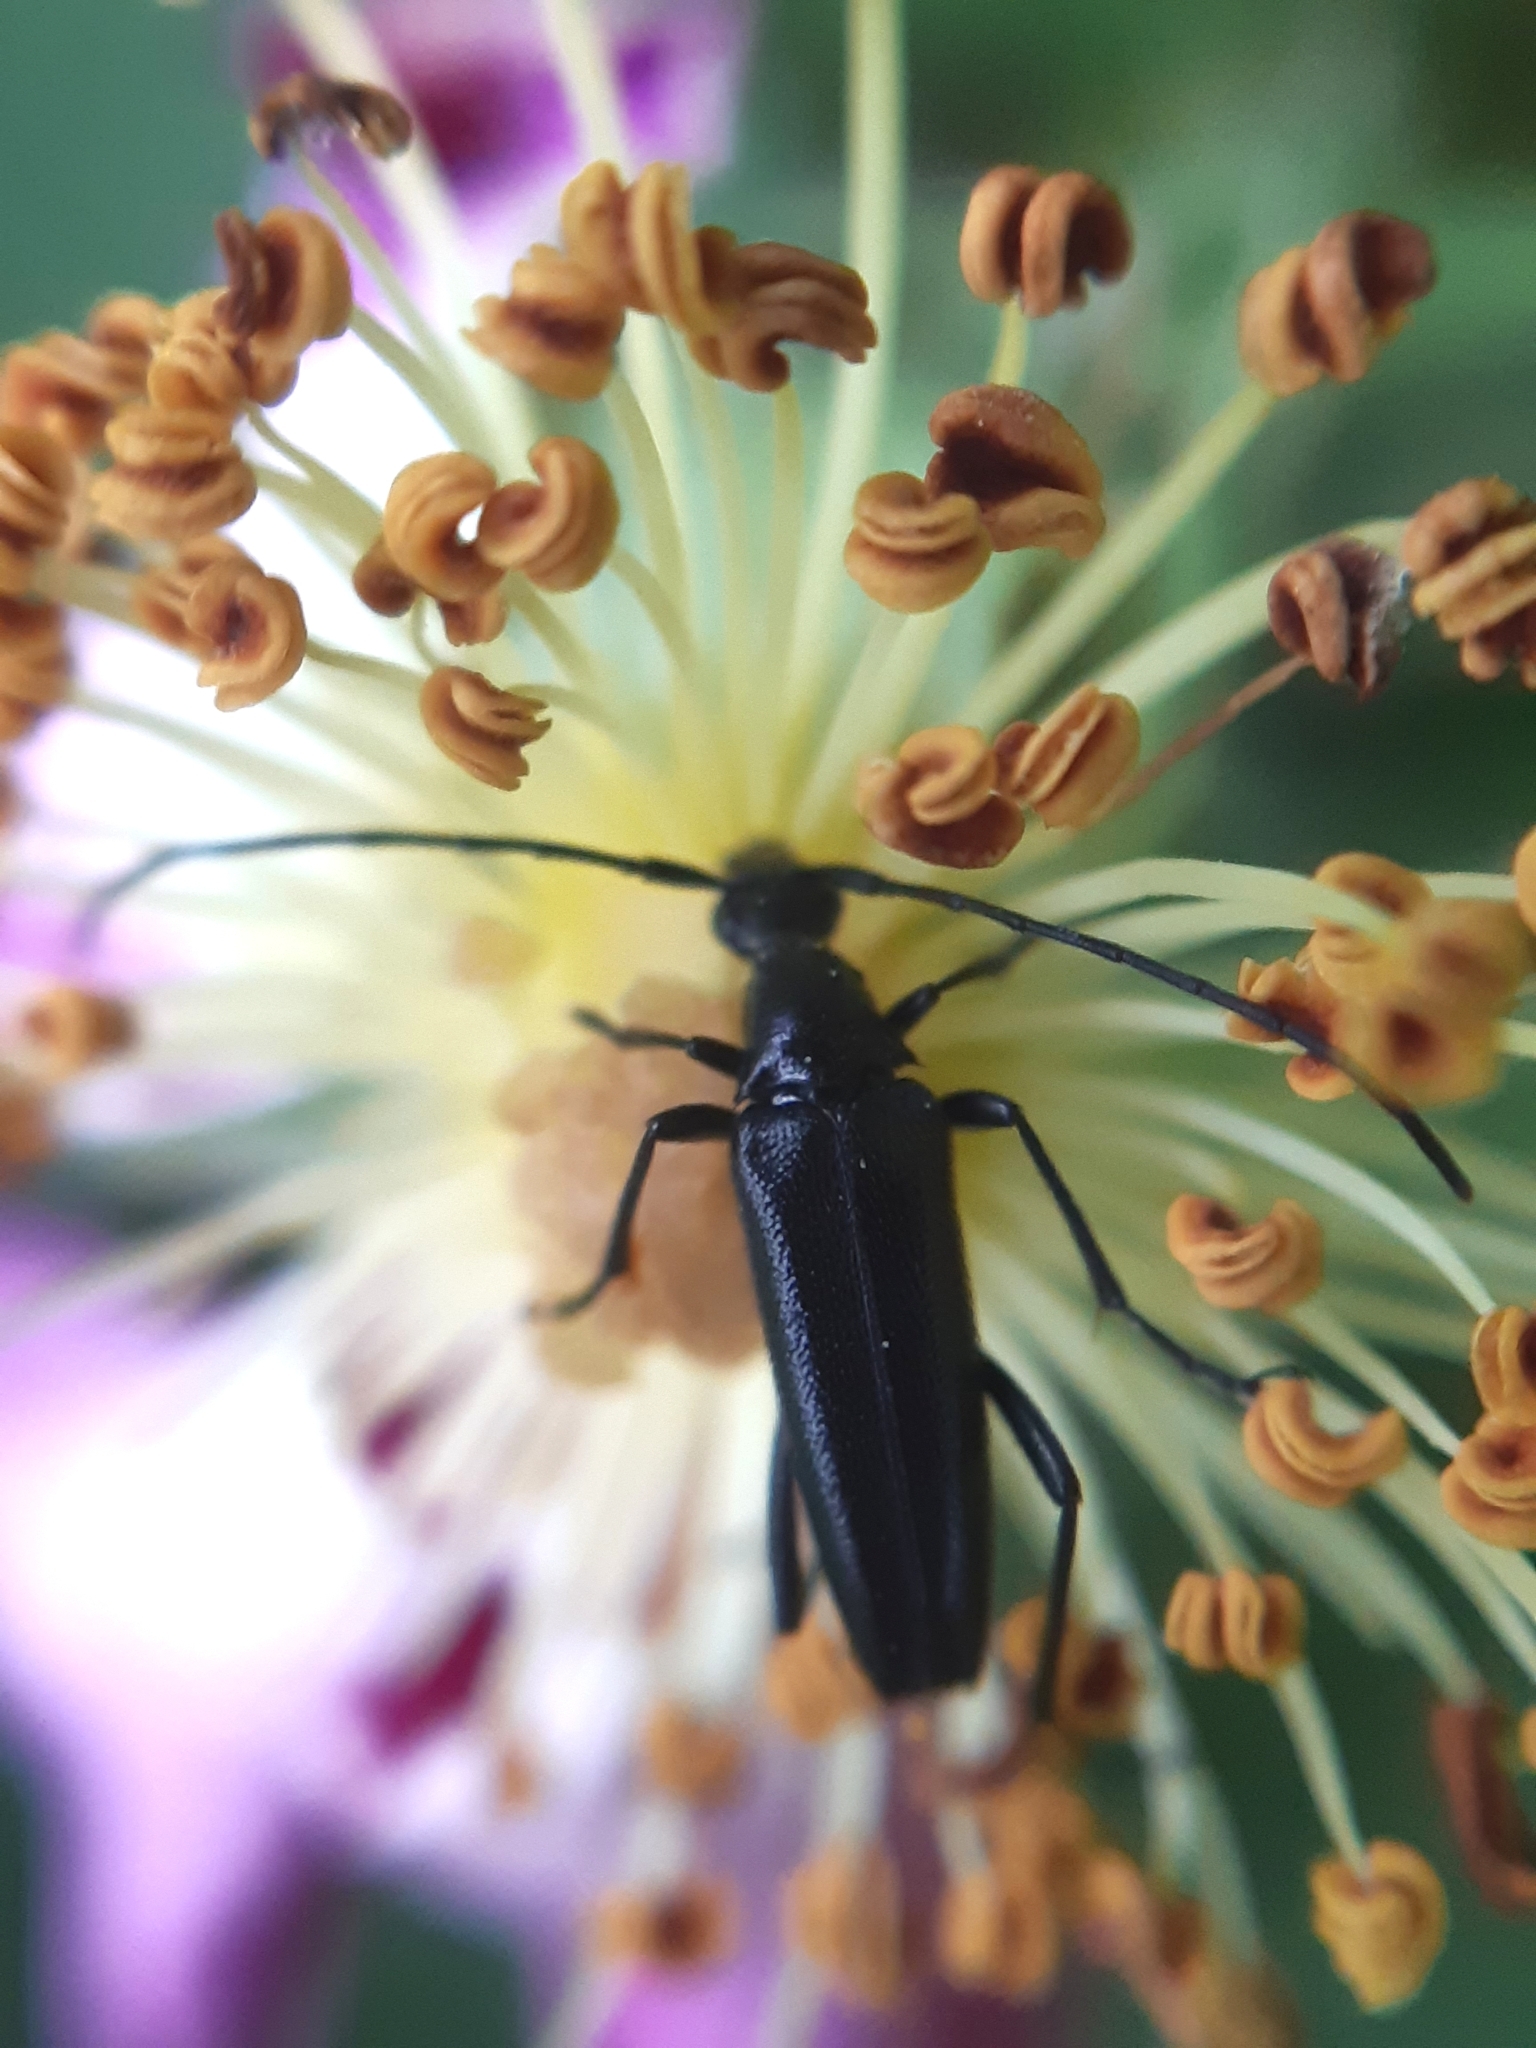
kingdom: Animalia
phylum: Arthropoda
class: Insecta
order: Coleoptera
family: Cerambycidae
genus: Stenurella
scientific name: Stenurella nigra
